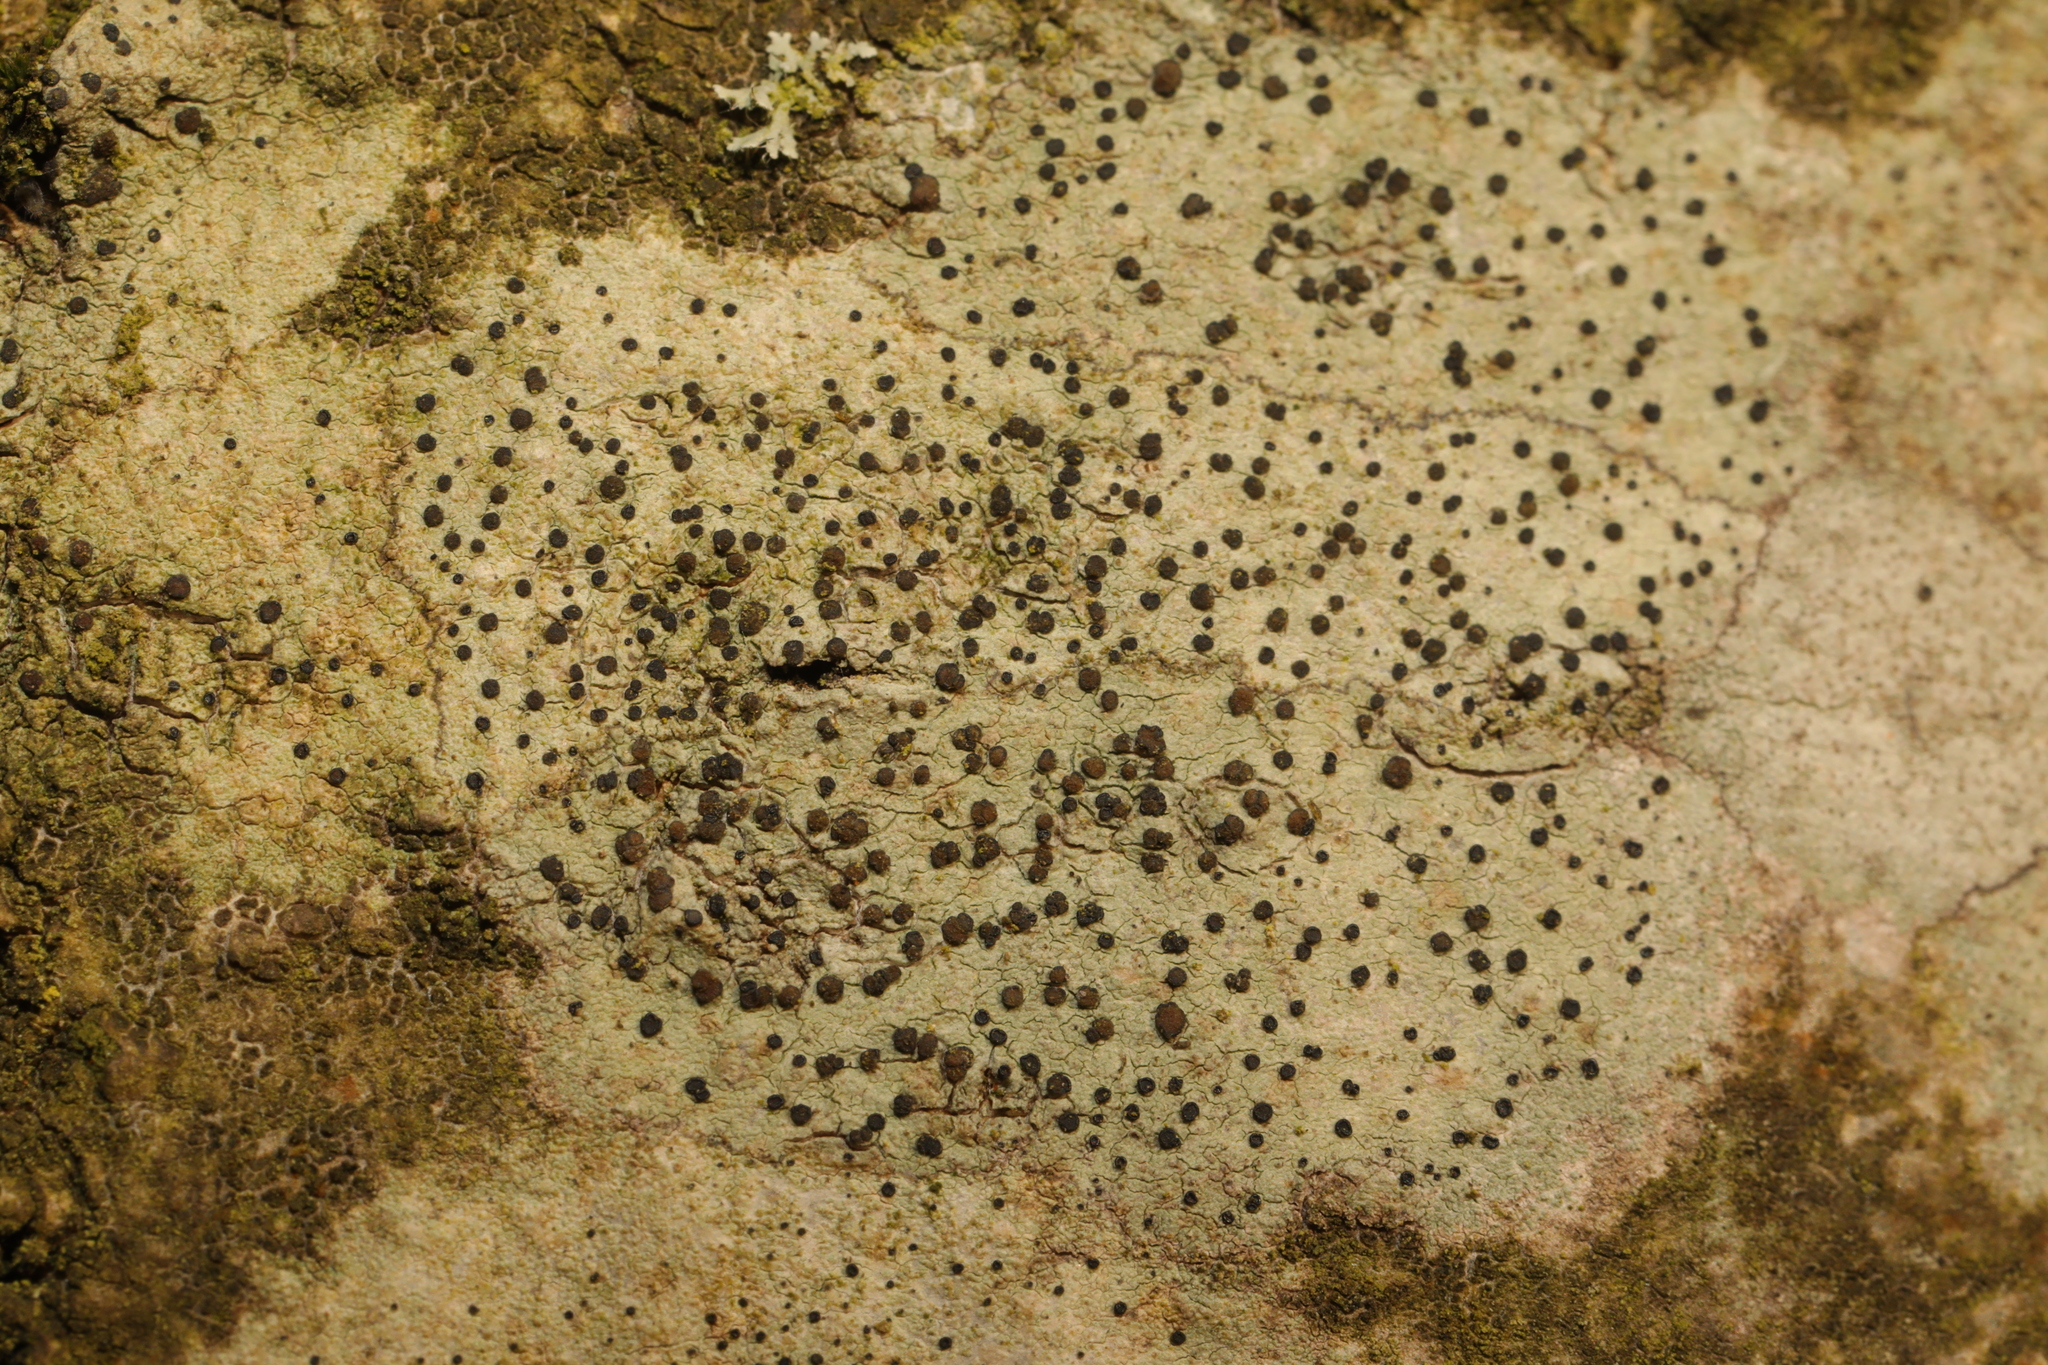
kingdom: Fungi
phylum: Ascomycota
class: Lecanoromycetes
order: Lecanorales
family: Lecanoraceae
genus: Lecidella
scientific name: Lecidella elaeochroma
